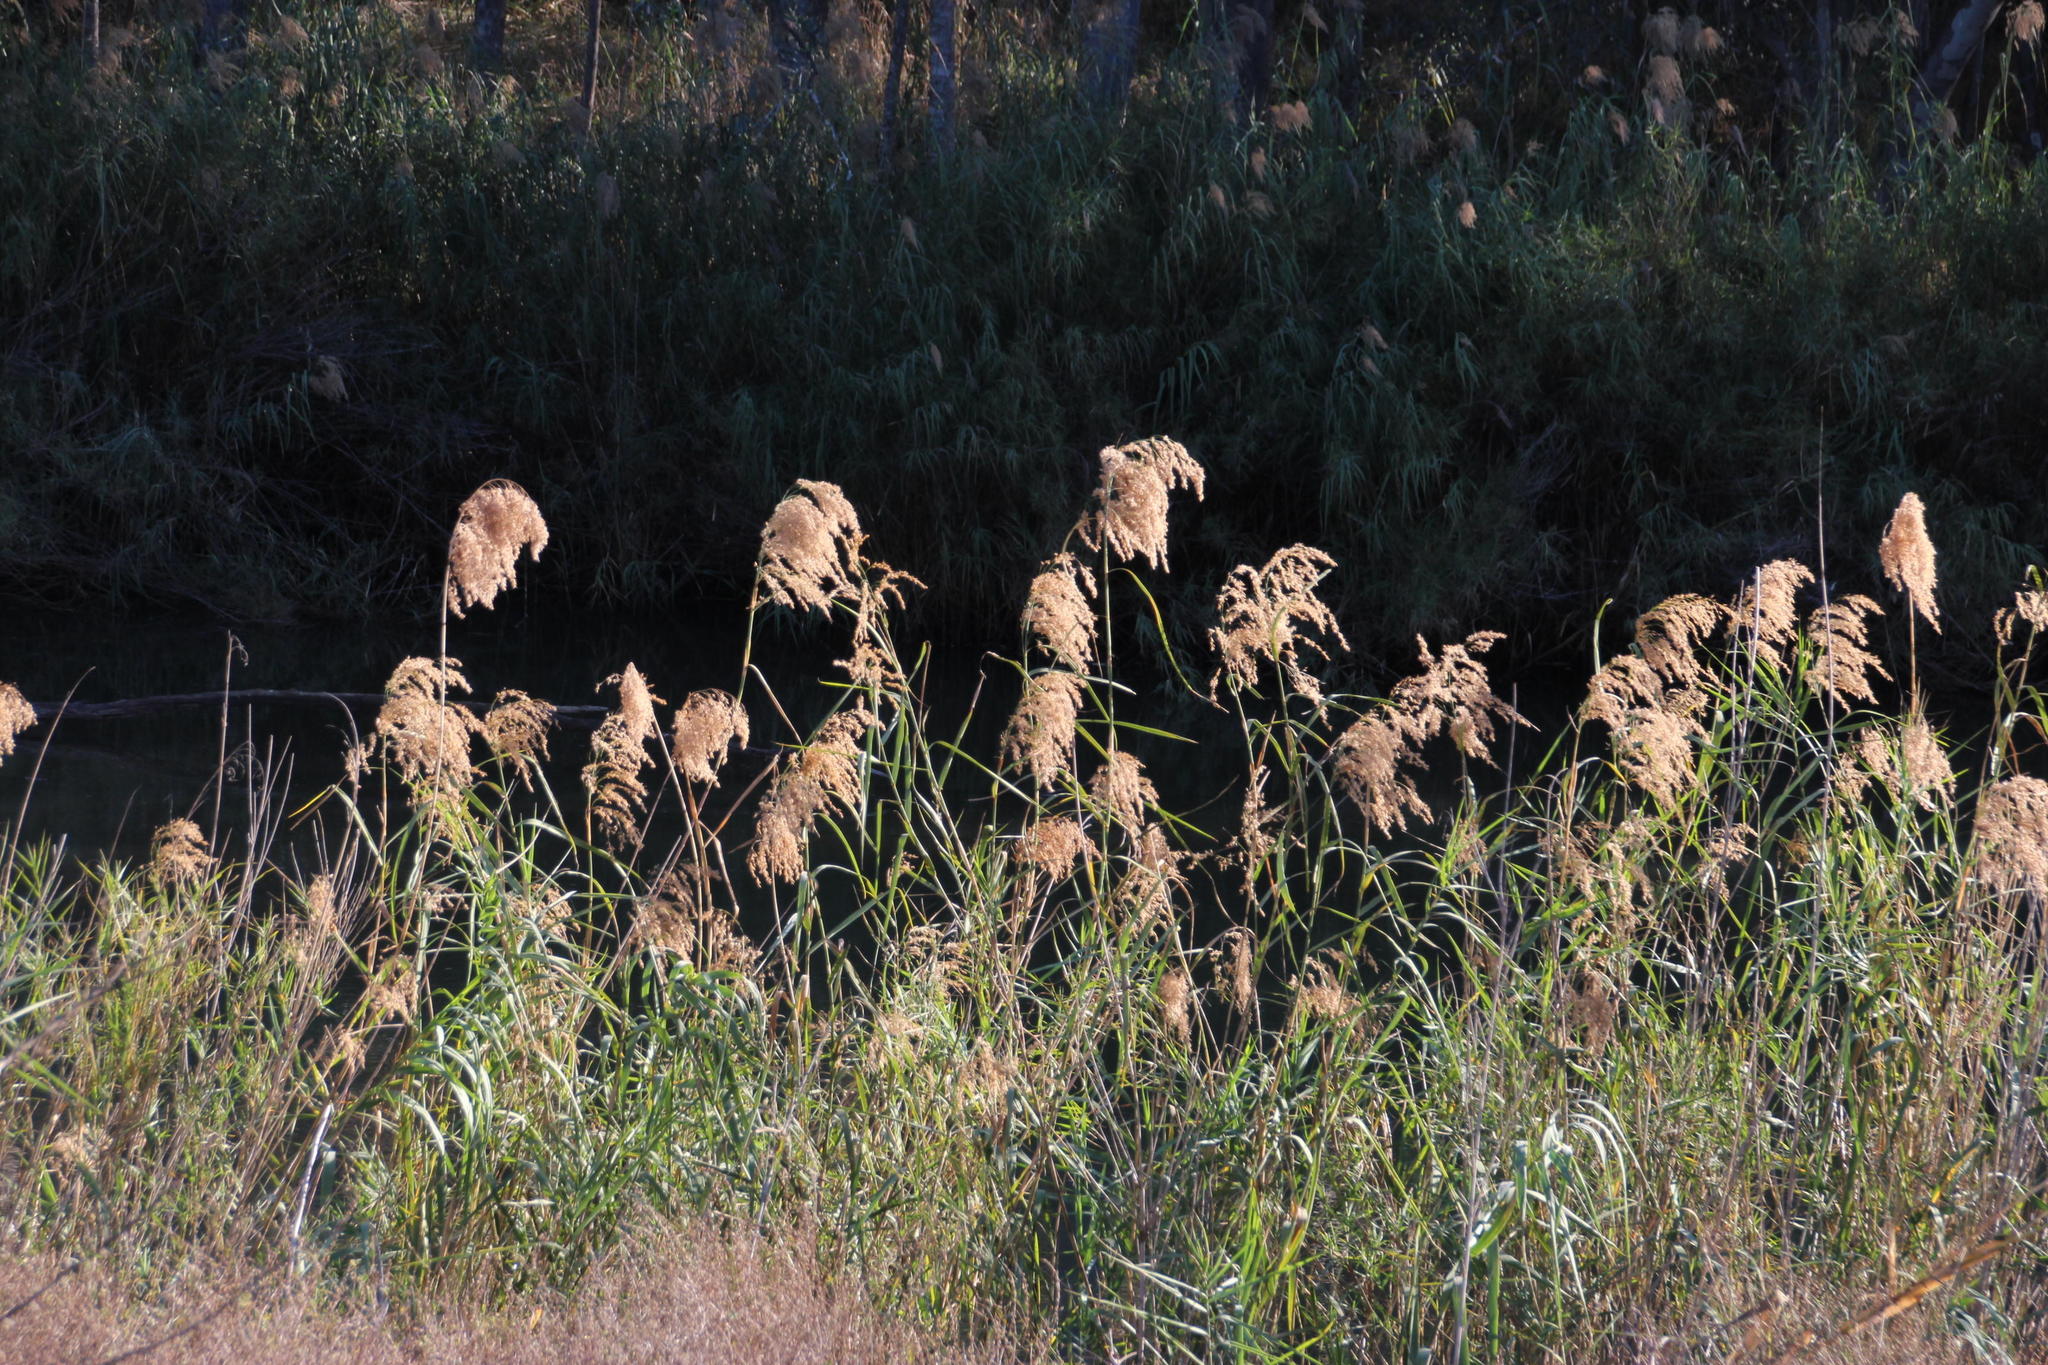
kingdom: Plantae
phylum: Tracheophyta
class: Liliopsida
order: Poales
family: Poaceae
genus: Phragmites
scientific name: Phragmites australis
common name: Common reed
